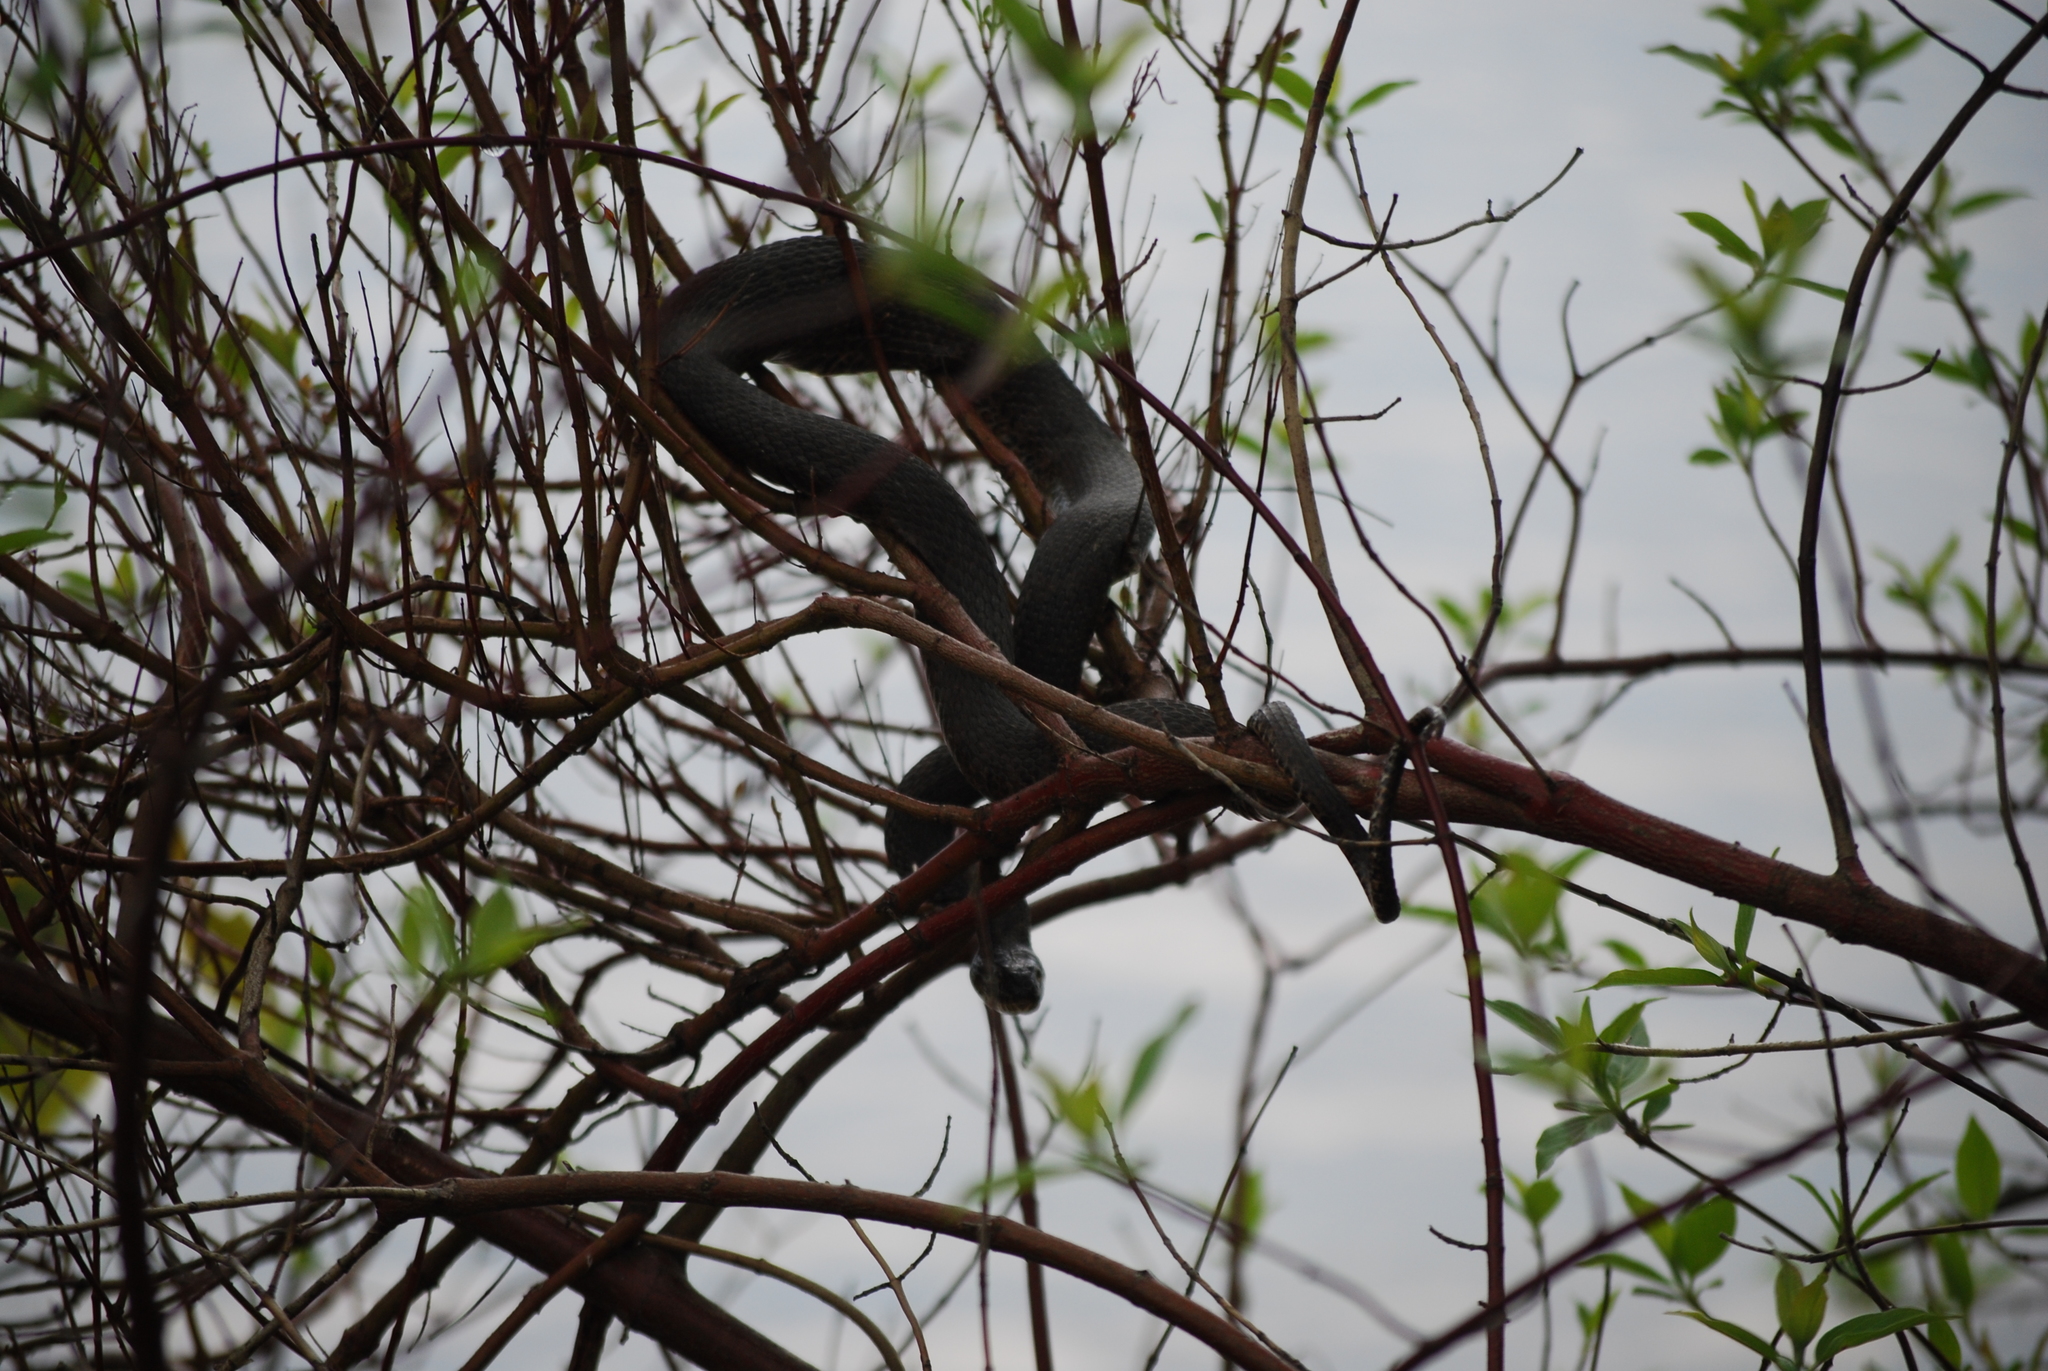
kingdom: Animalia
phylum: Chordata
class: Squamata
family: Colubridae
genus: Nerodia
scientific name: Nerodia sipedon
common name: Northern water snake
